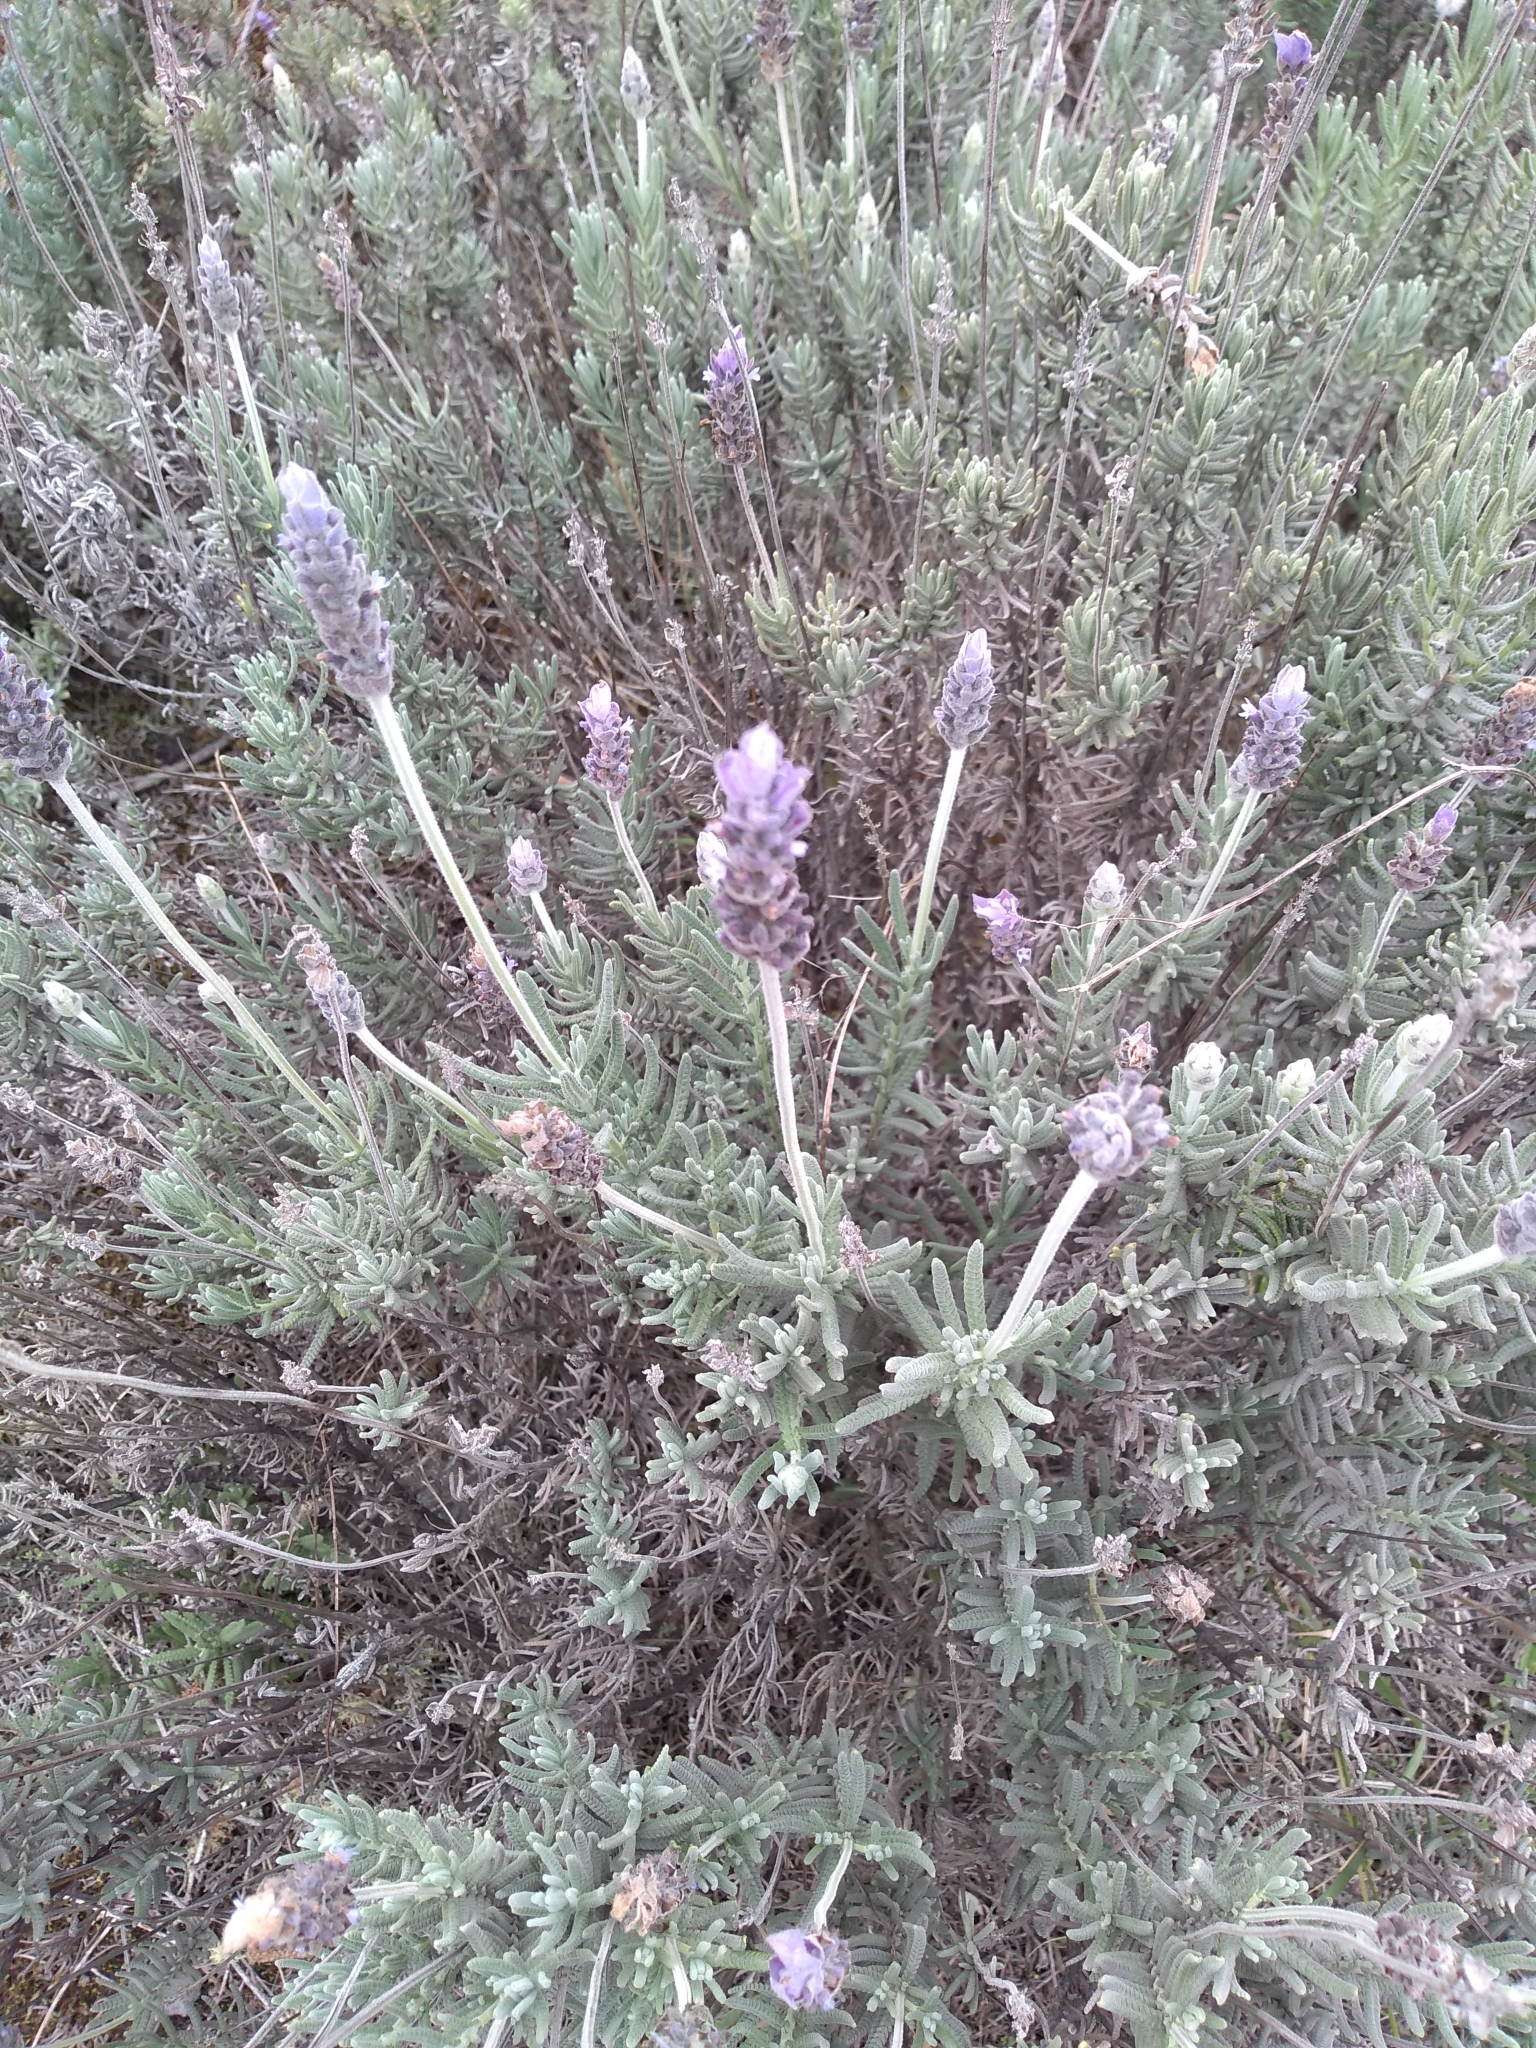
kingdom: Plantae
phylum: Tracheophyta
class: Magnoliopsida
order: Lamiales
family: Lamiaceae
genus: Lavandula
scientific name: Lavandula dentata
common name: French lavender
